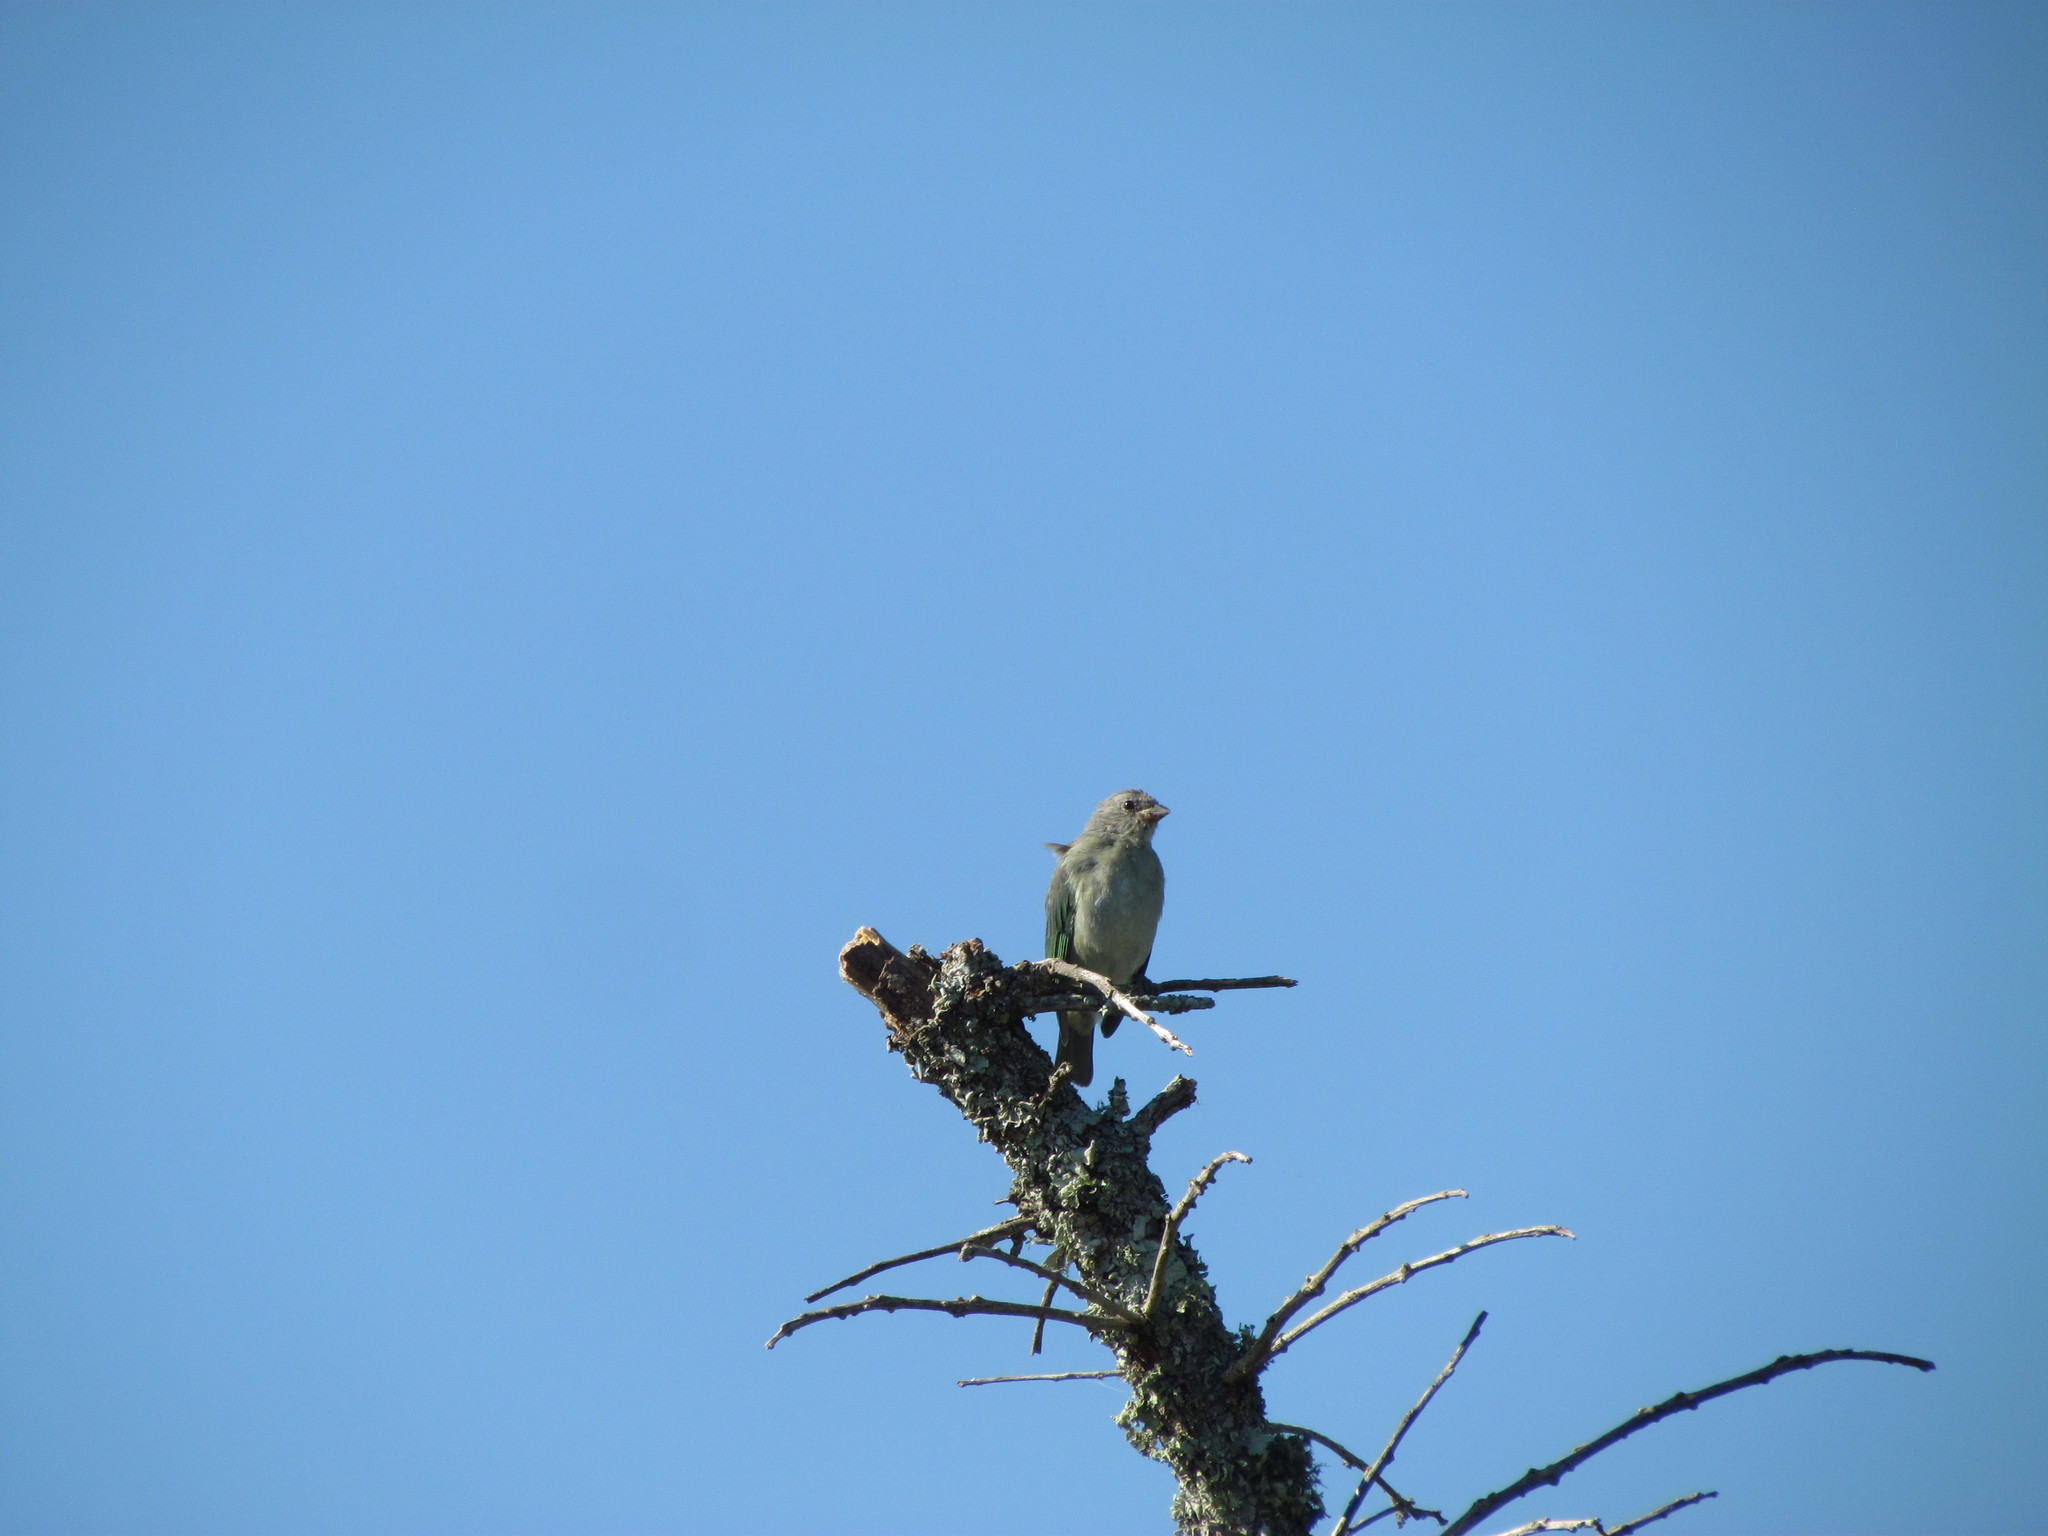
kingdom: Animalia
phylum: Chordata
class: Aves
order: Passeriformes
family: Thraupidae
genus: Thraupis
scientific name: Thraupis sayaca
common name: Sayaca tanager
